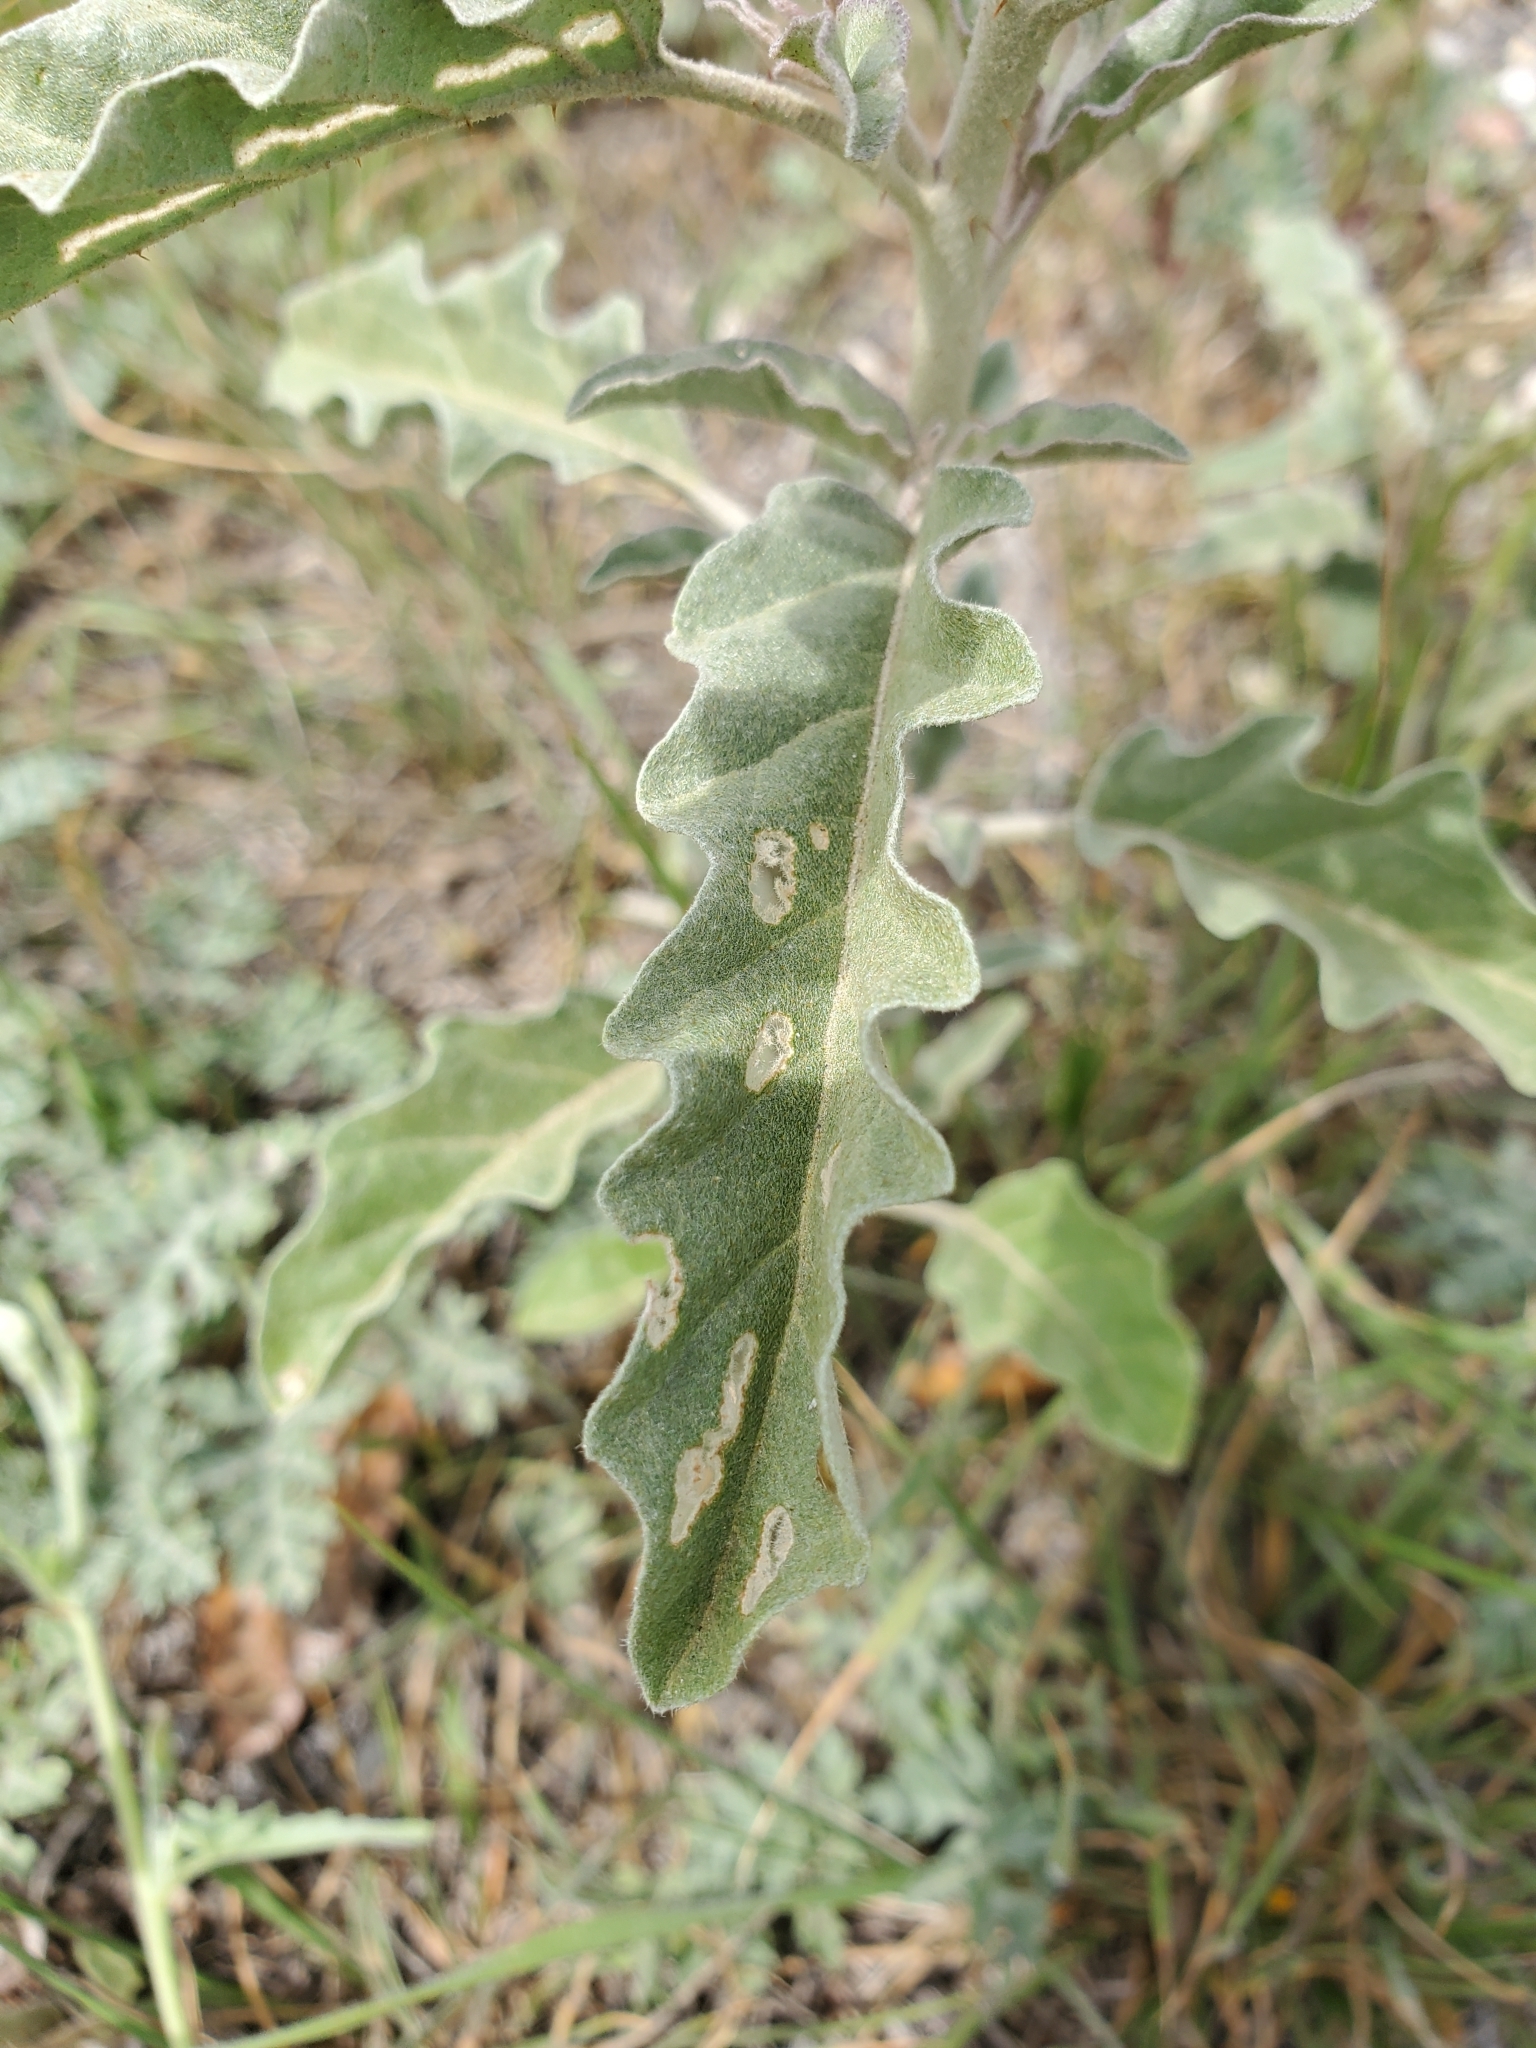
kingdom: Plantae
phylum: Tracheophyta
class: Magnoliopsida
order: Solanales
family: Solanaceae
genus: Solanum
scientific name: Solanum elaeagnifolium
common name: Silverleaf nightshade
